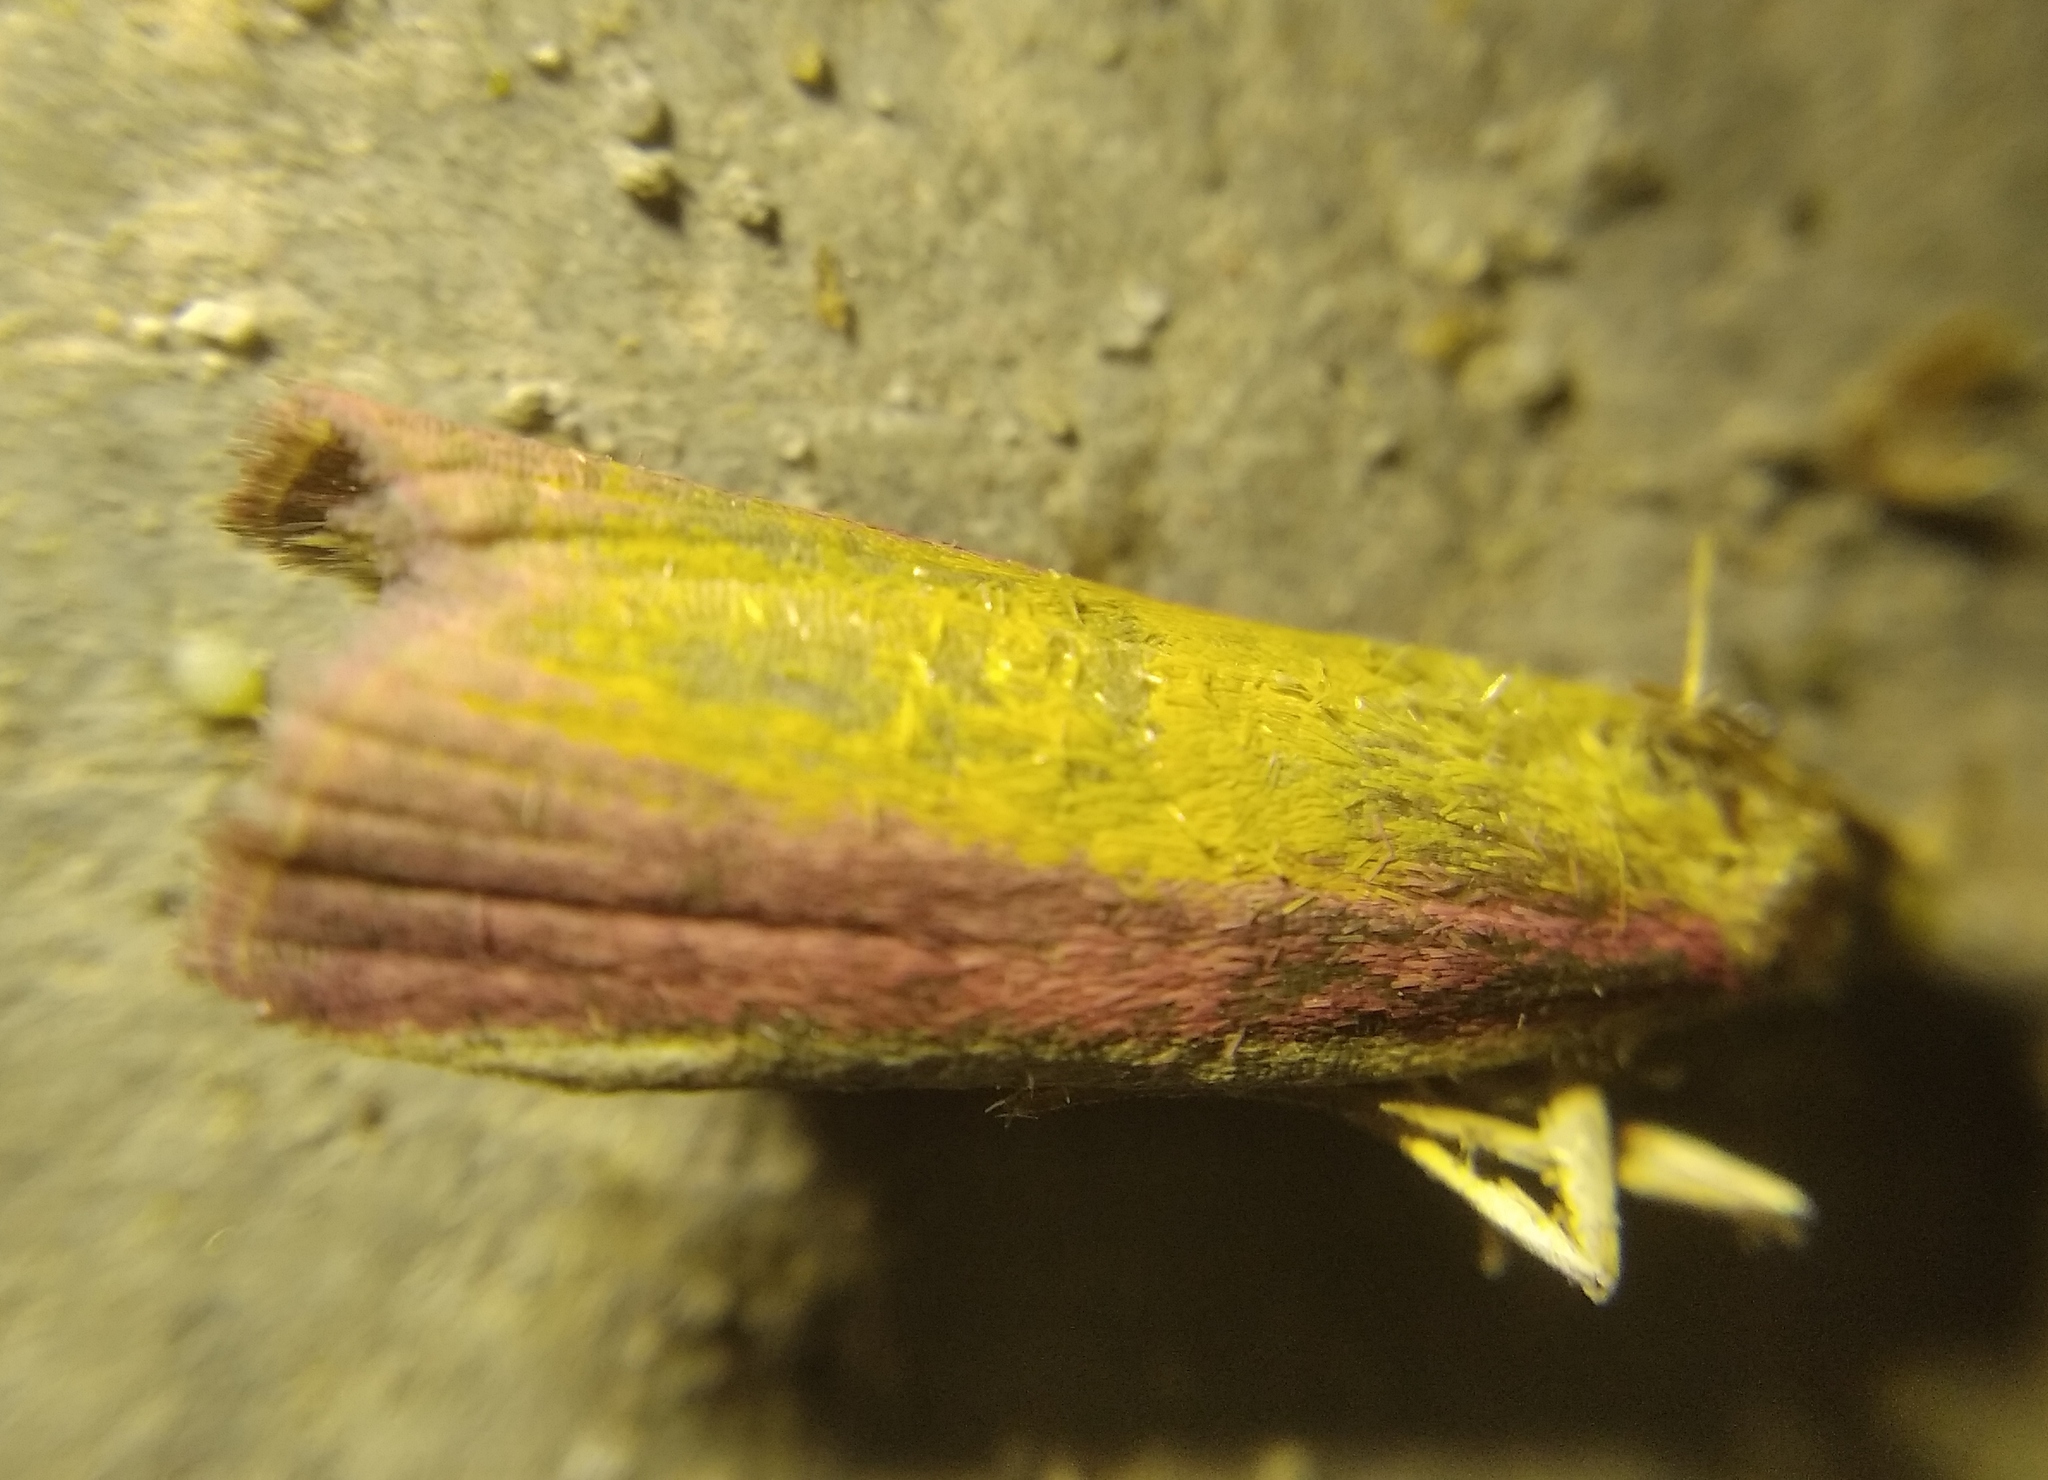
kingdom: Animalia
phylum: Arthropoda
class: Insecta
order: Lepidoptera
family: Pyralidae
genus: Oncocera
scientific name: Oncocera semirubella
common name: Rosy-striped knot-horn
